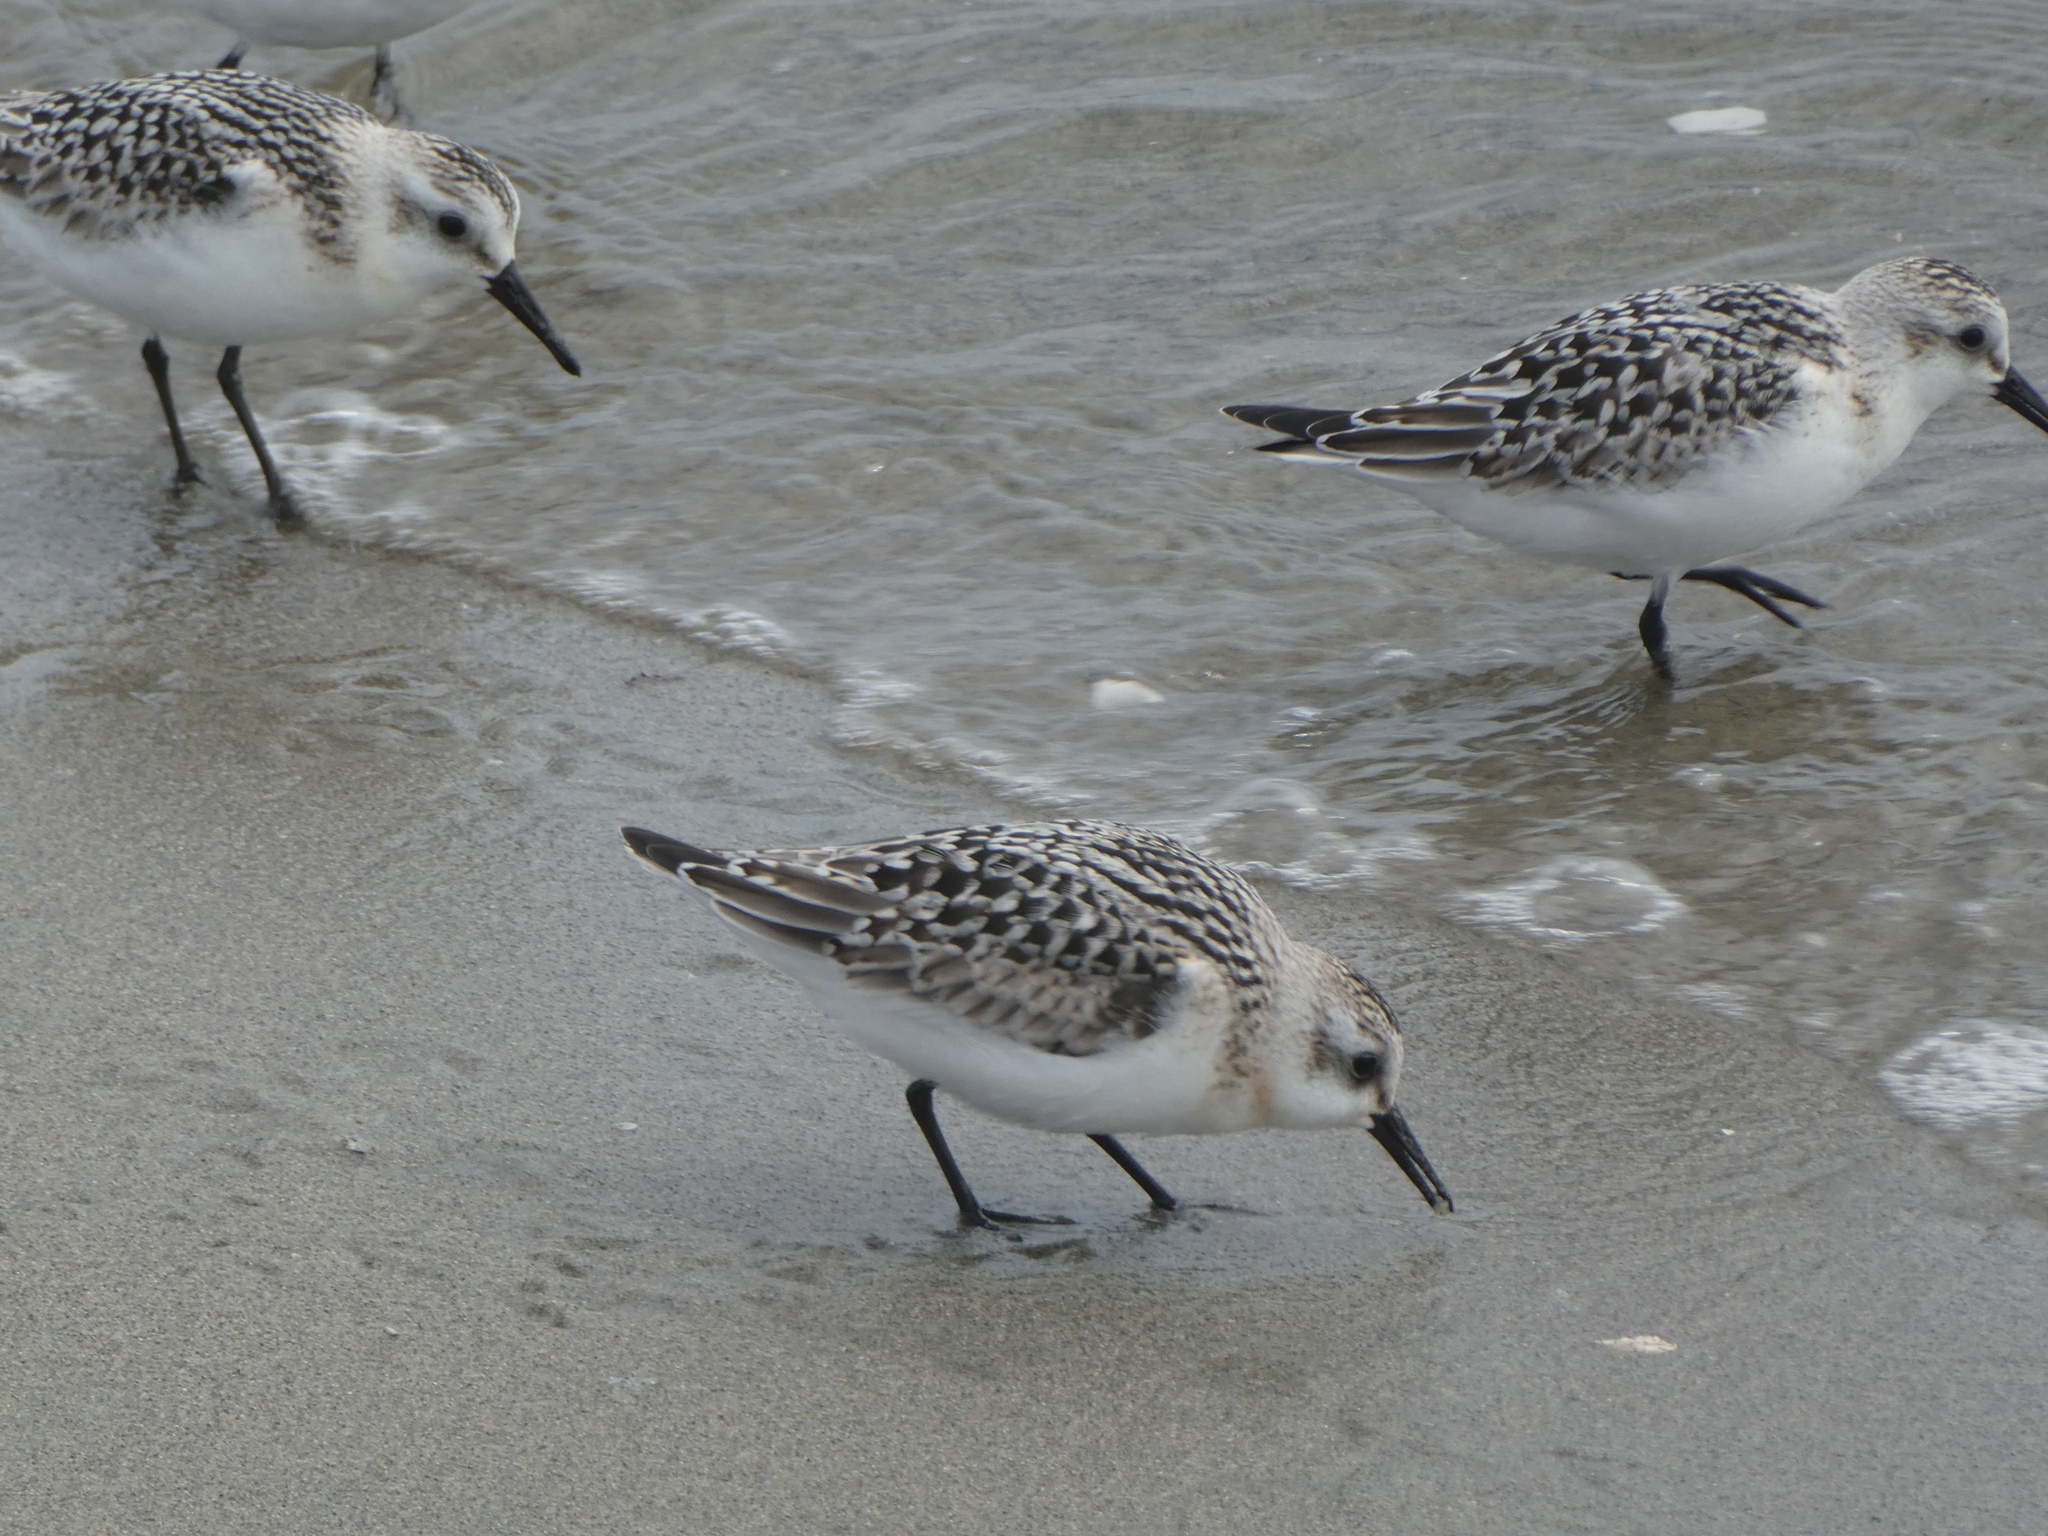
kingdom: Animalia
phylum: Chordata
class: Aves
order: Charadriiformes
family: Scolopacidae
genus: Calidris
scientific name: Calidris alba
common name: Sanderling
